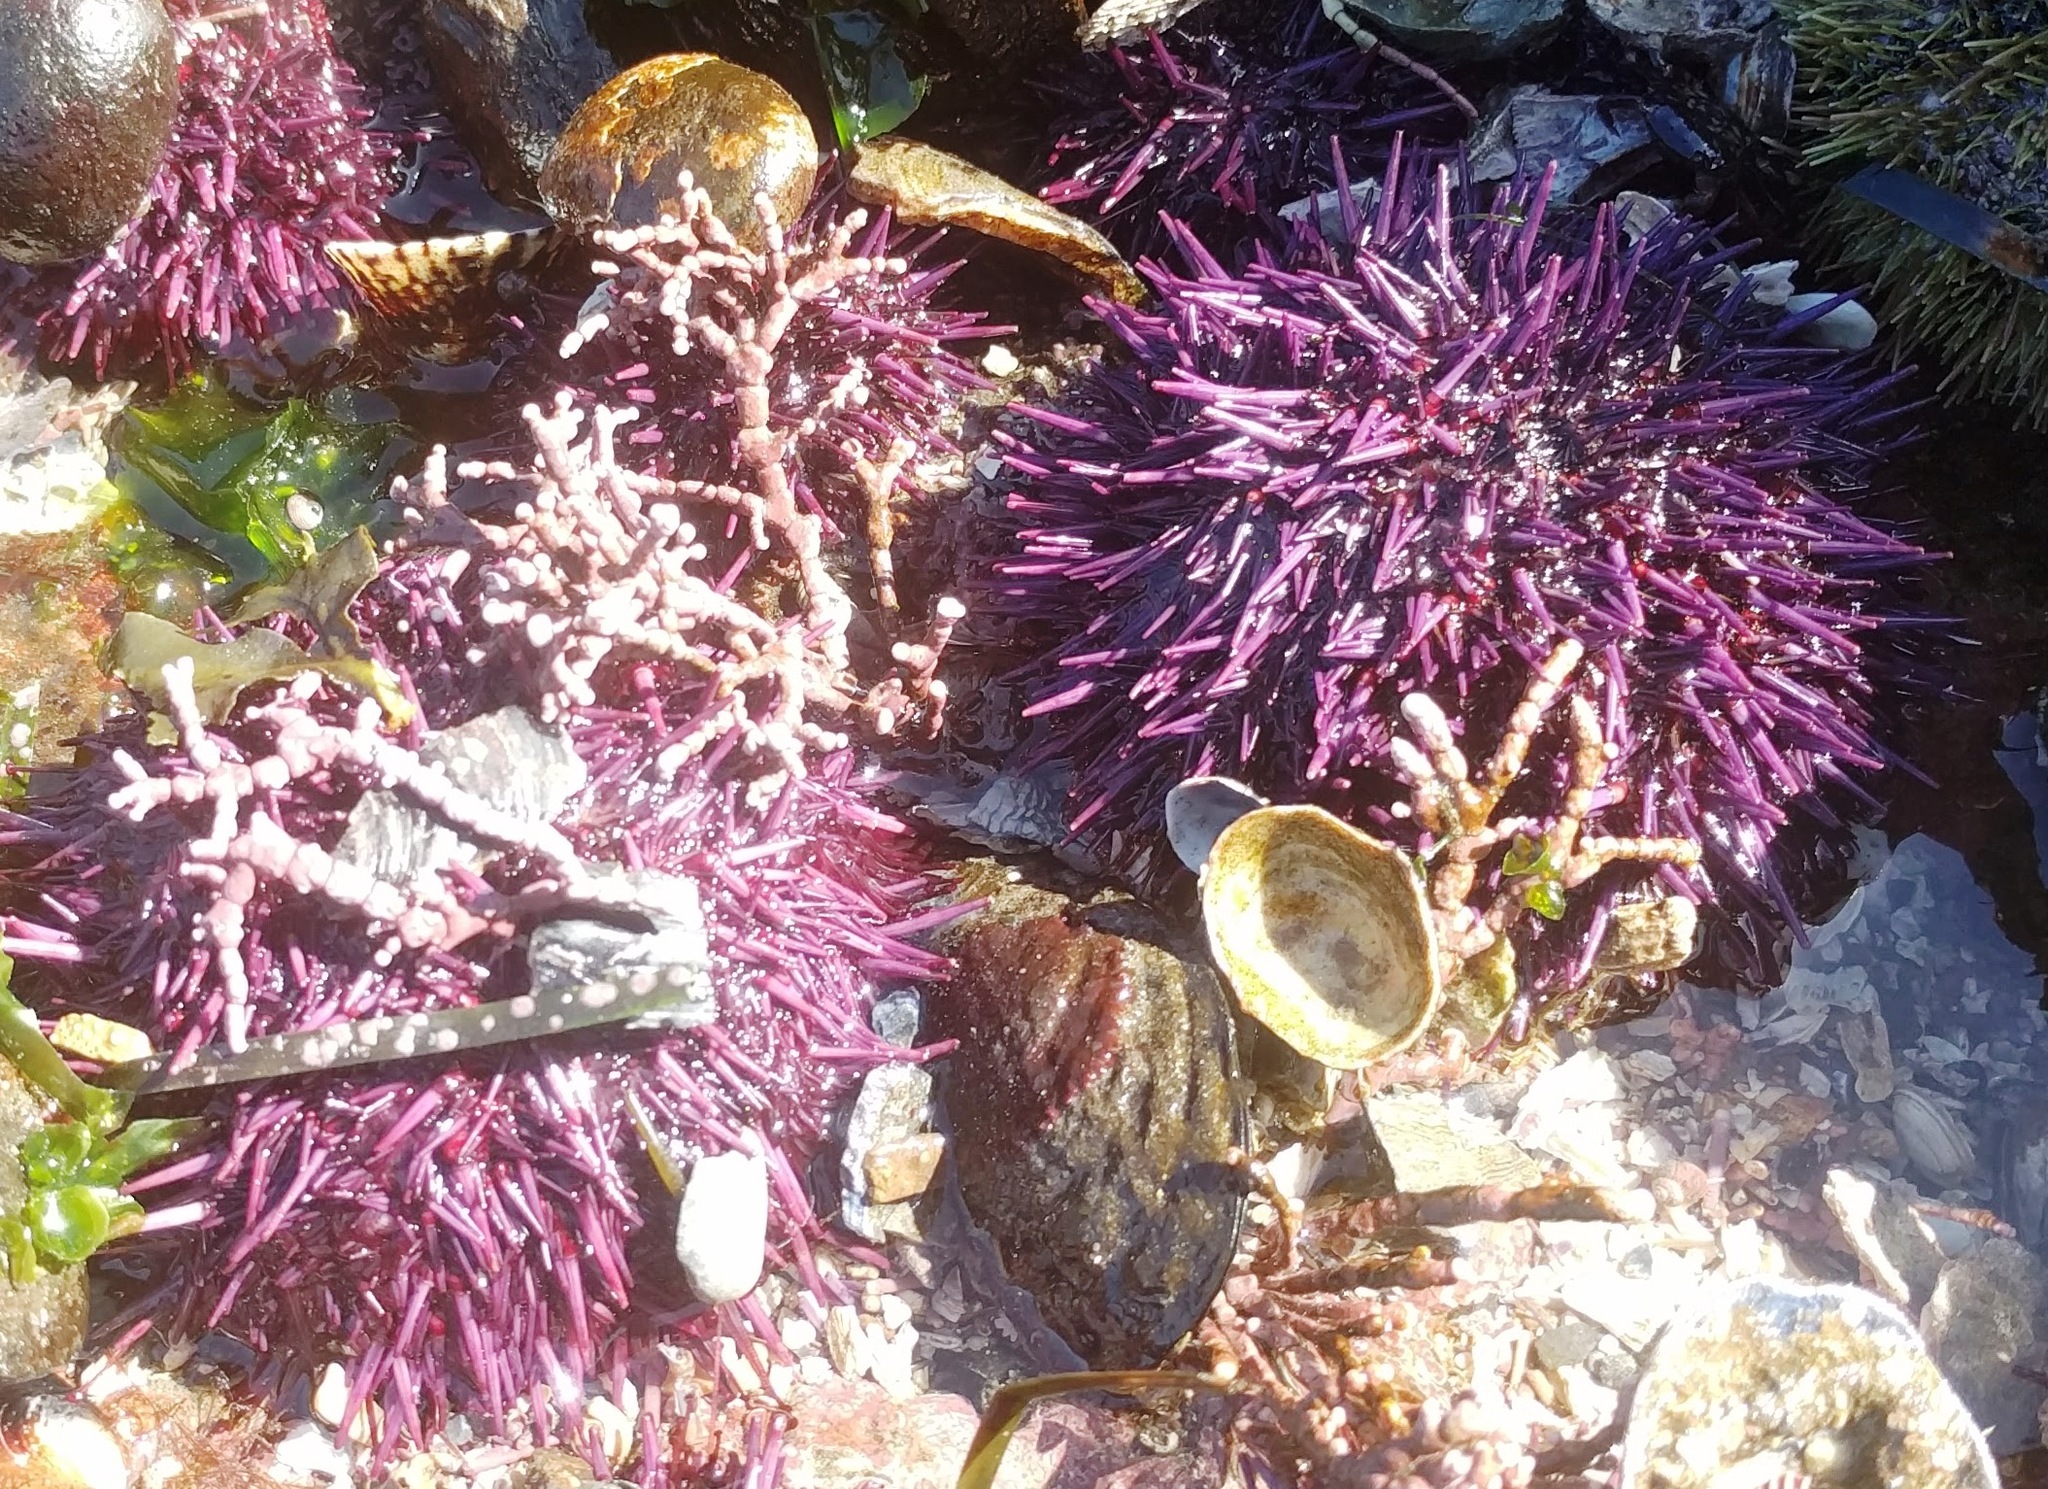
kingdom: Animalia
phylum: Echinodermata
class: Echinoidea
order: Camarodonta
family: Strongylocentrotidae
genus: Strongylocentrotus
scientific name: Strongylocentrotus purpuratus
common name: Purple sea urchin
